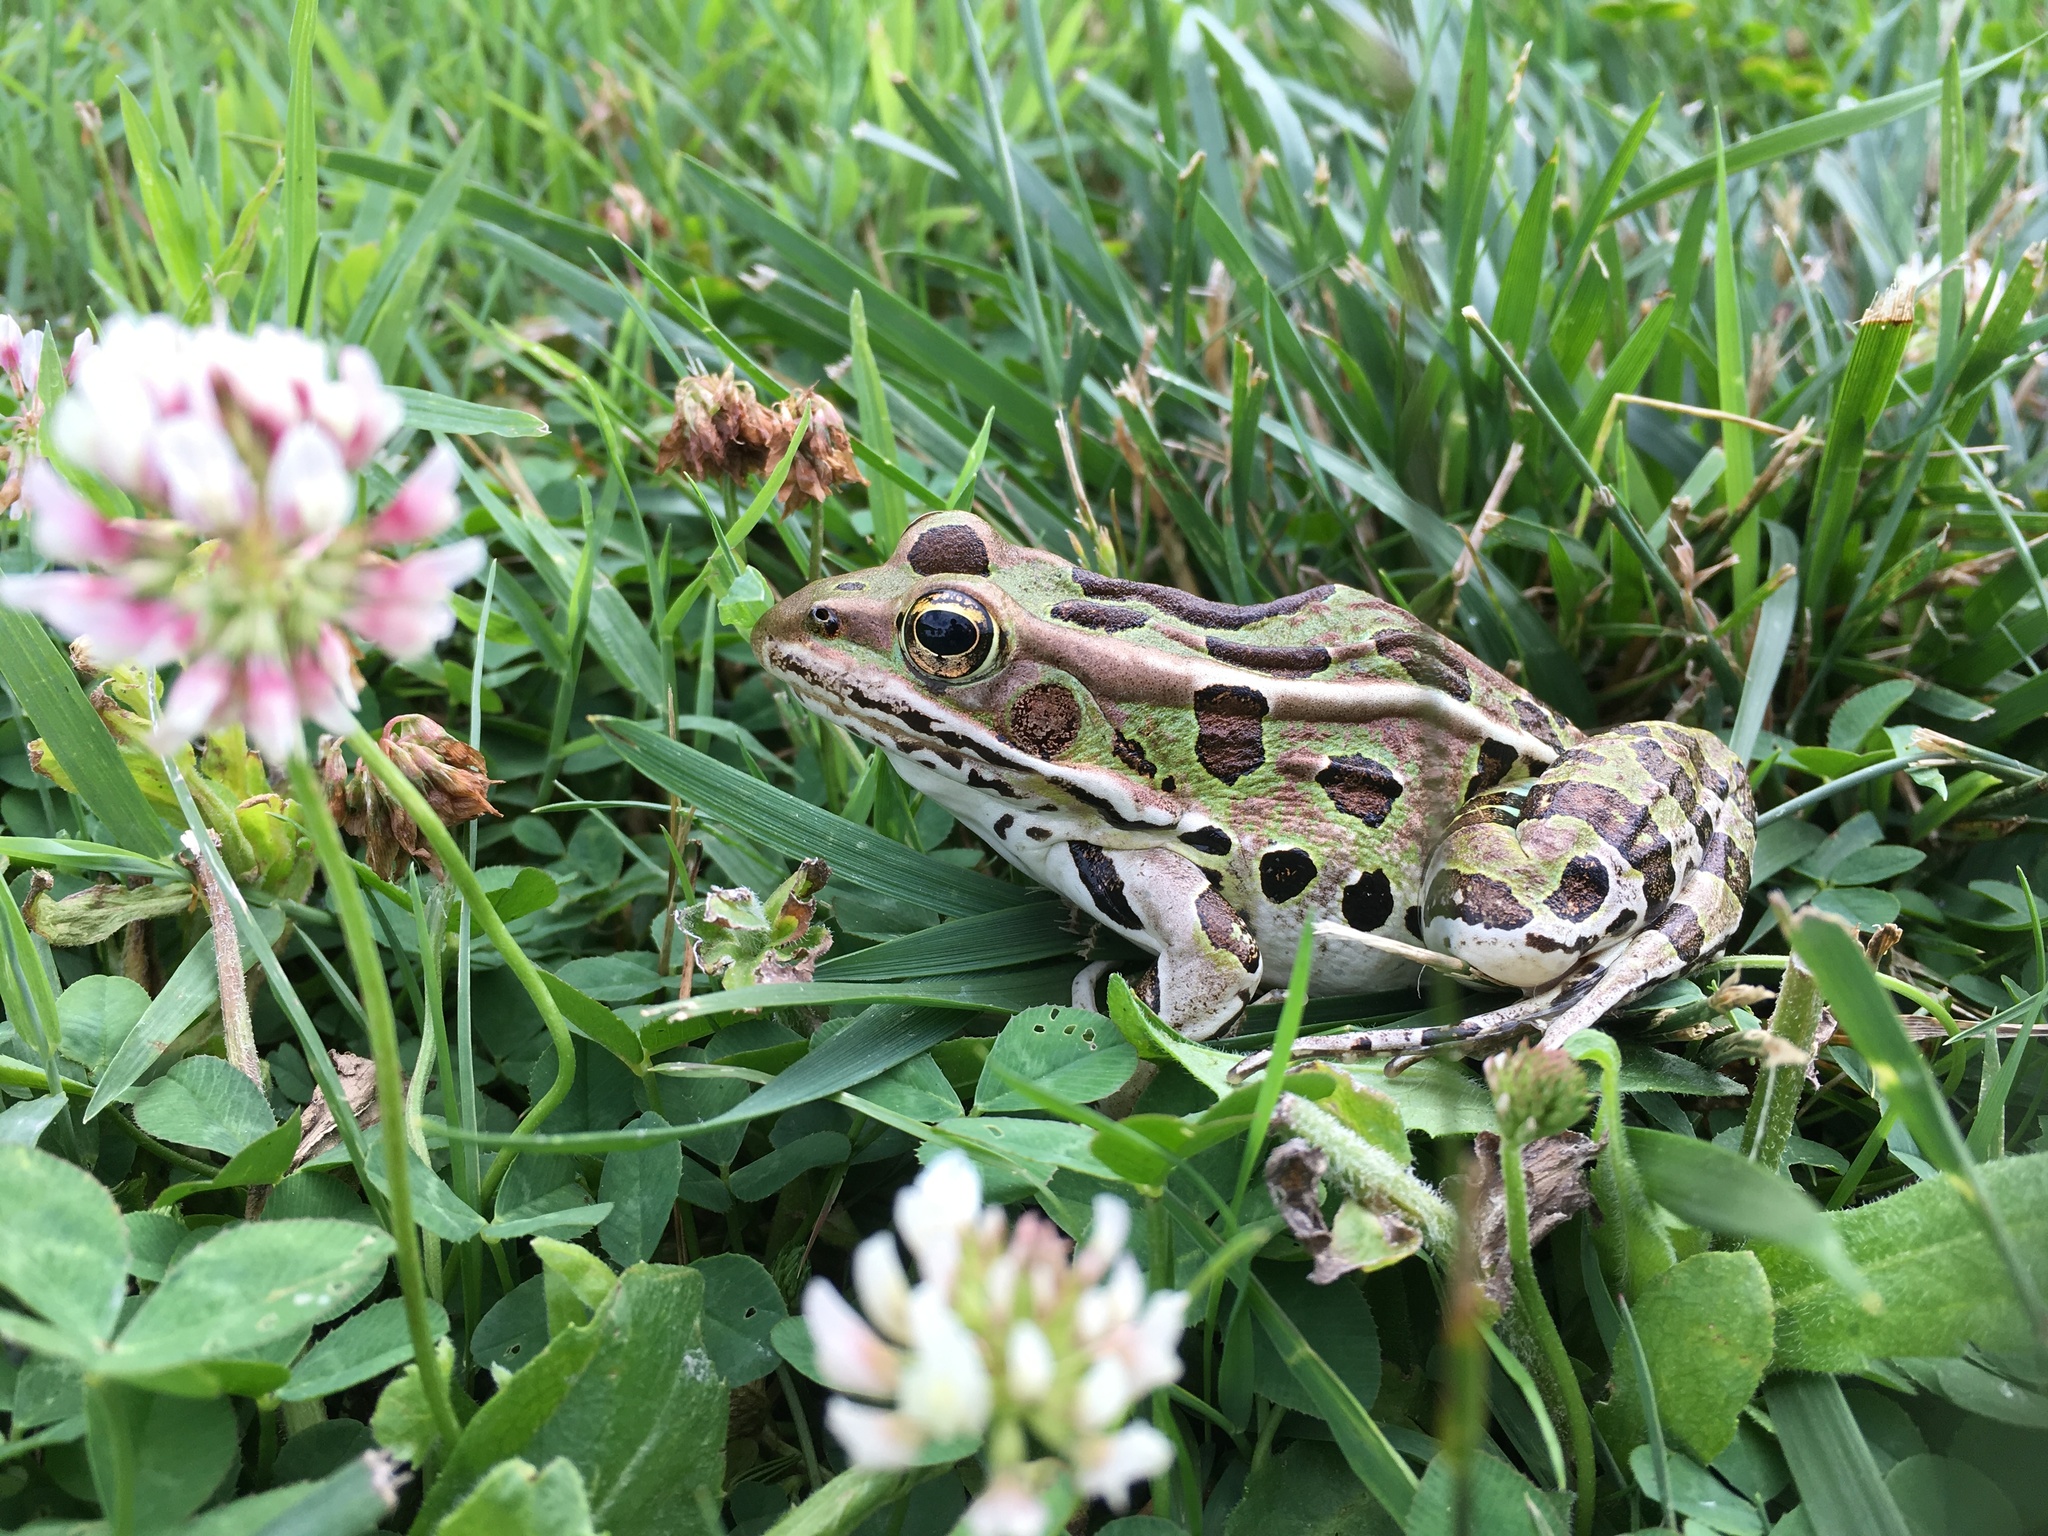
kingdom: Animalia
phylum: Chordata
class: Amphibia
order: Anura
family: Ranidae
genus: Lithobates
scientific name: Lithobates pipiens
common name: Northern leopard frog
